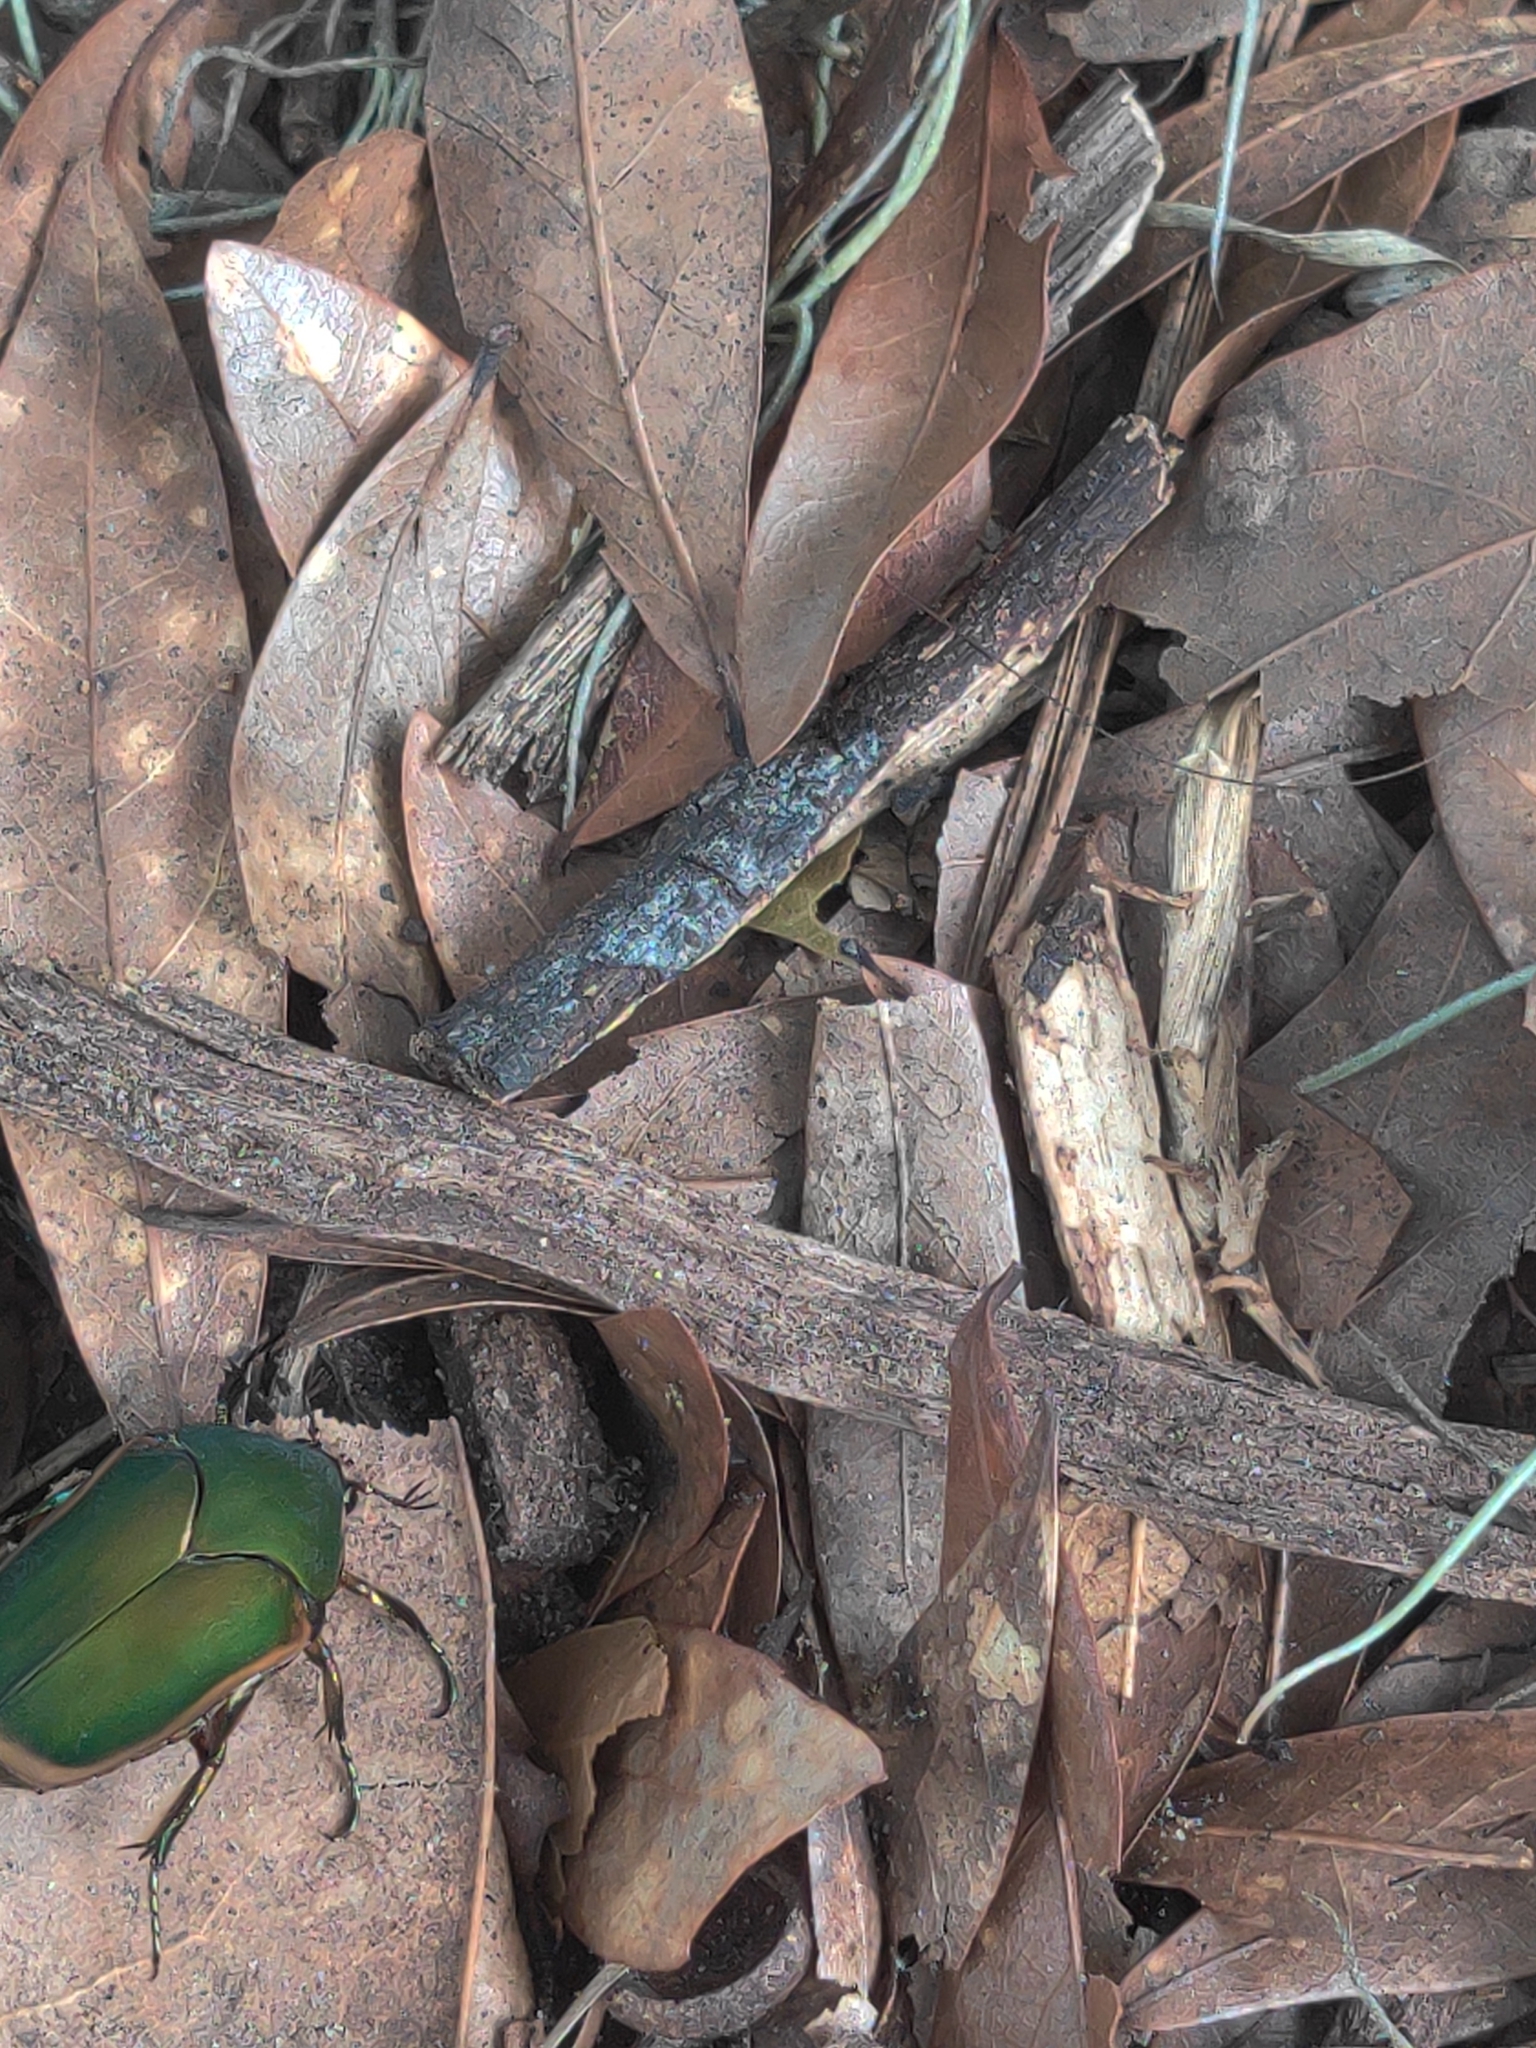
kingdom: Animalia
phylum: Arthropoda
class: Insecta
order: Coleoptera
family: Scarabaeidae
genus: Cotinis
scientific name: Cotinis nitida
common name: Common green june beetle
